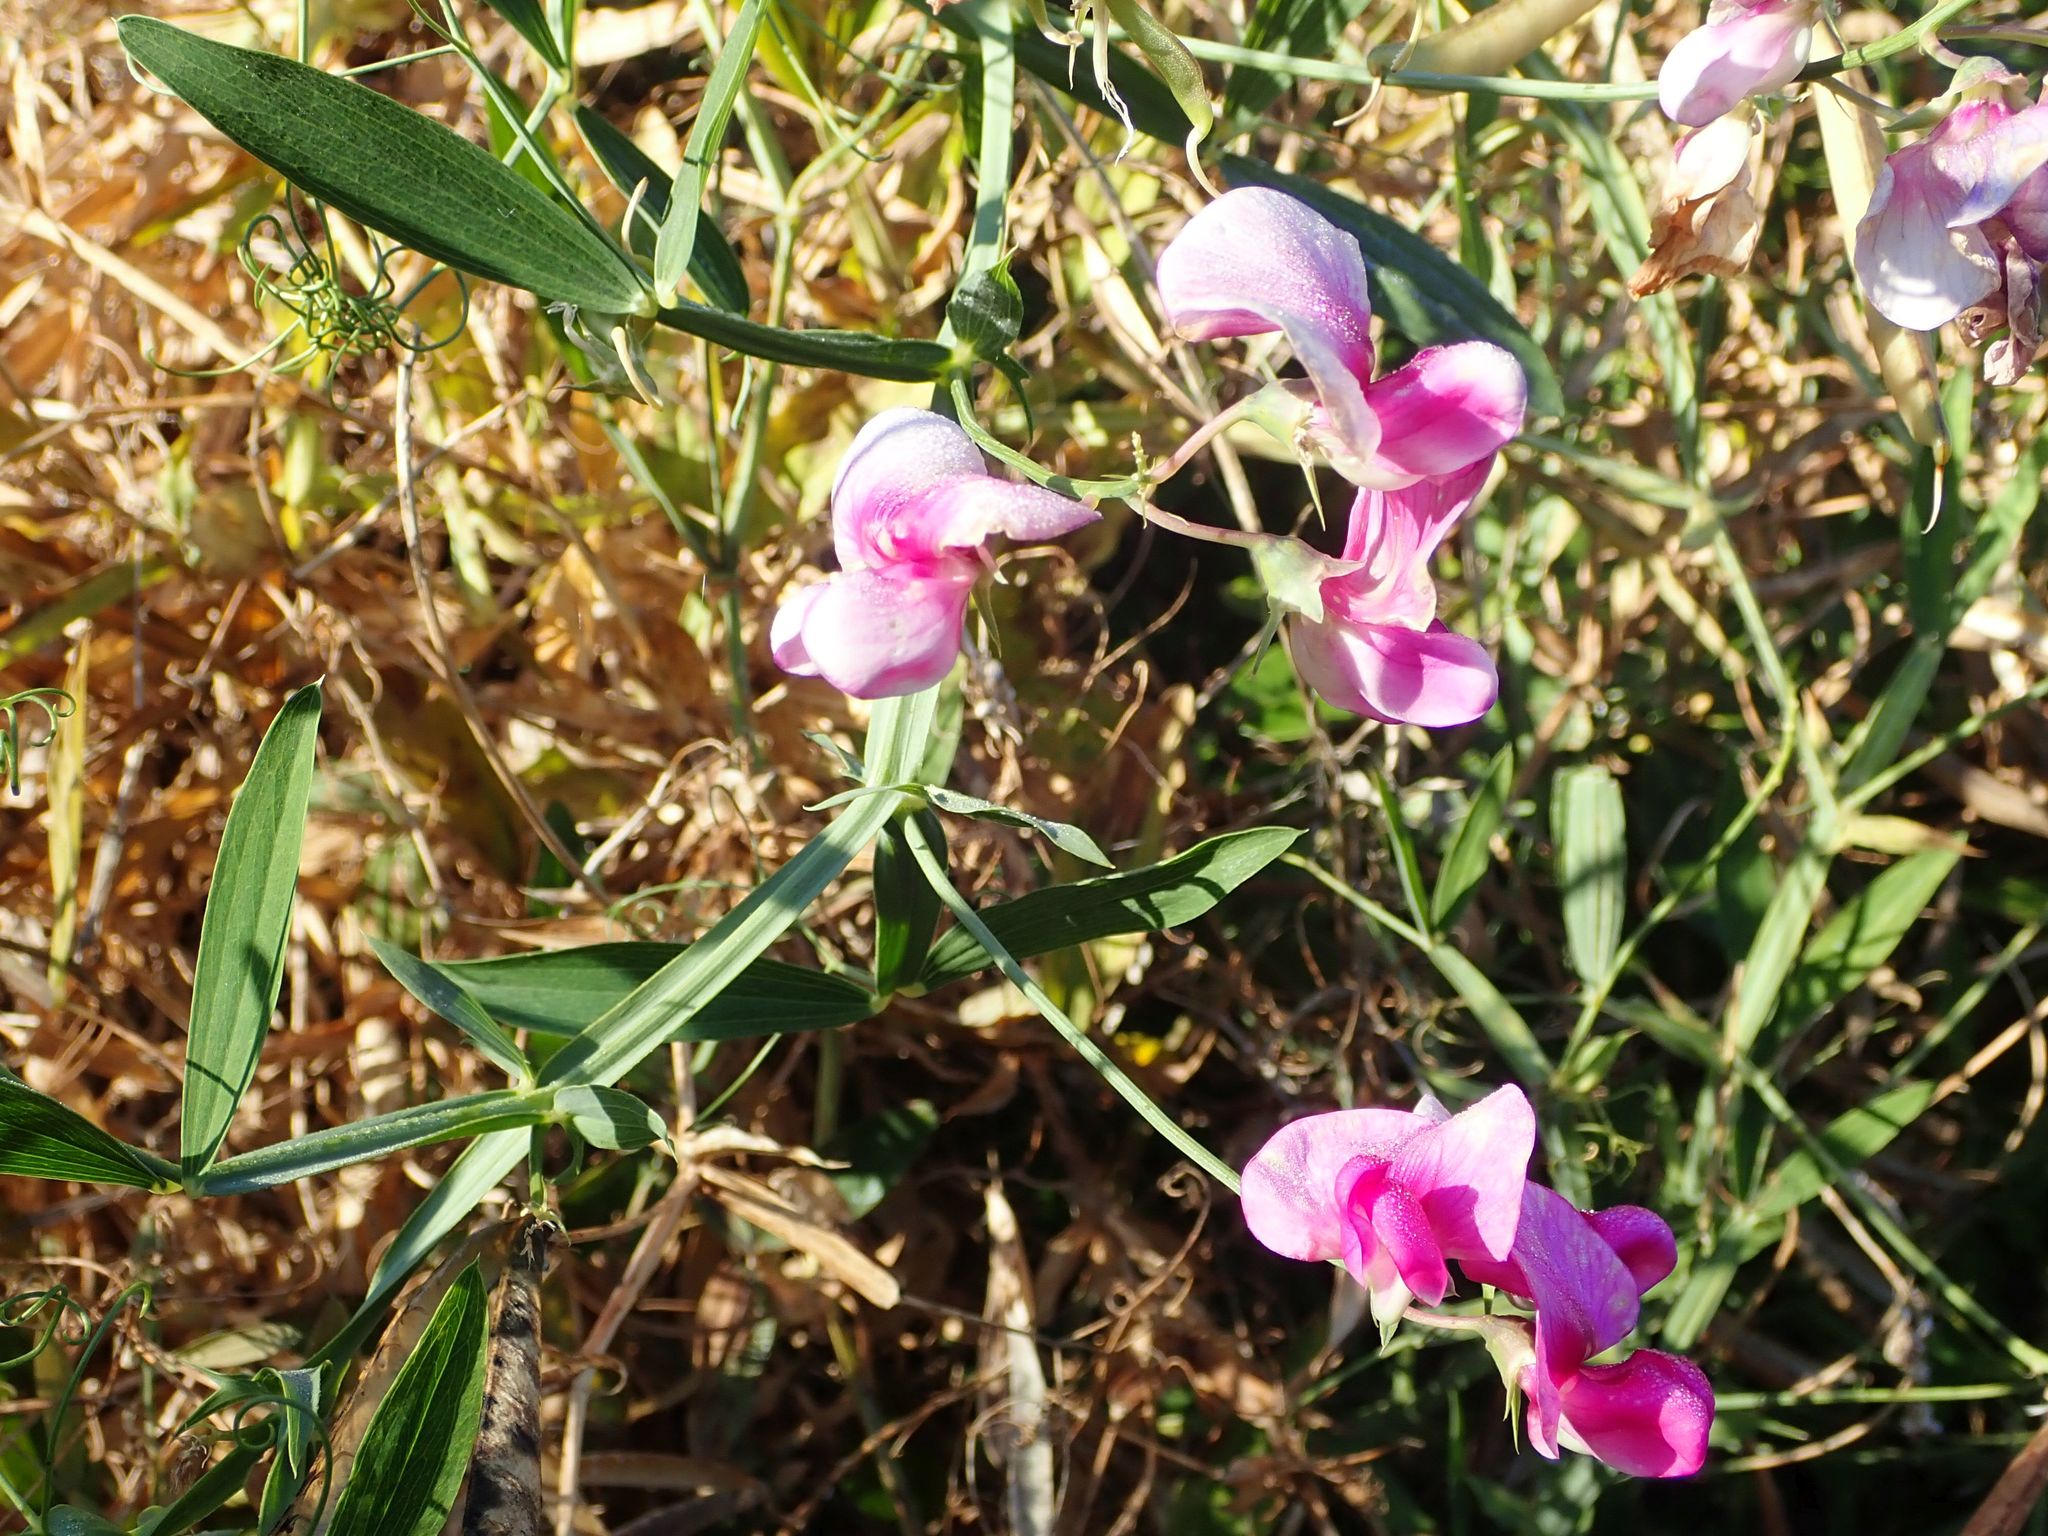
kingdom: Plantae
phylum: Tracheophyta
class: Magnoliopsida
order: Fabales
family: Fabaceae
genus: Lathyrus
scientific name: Lathyrus latifolius
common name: Perennial pea
